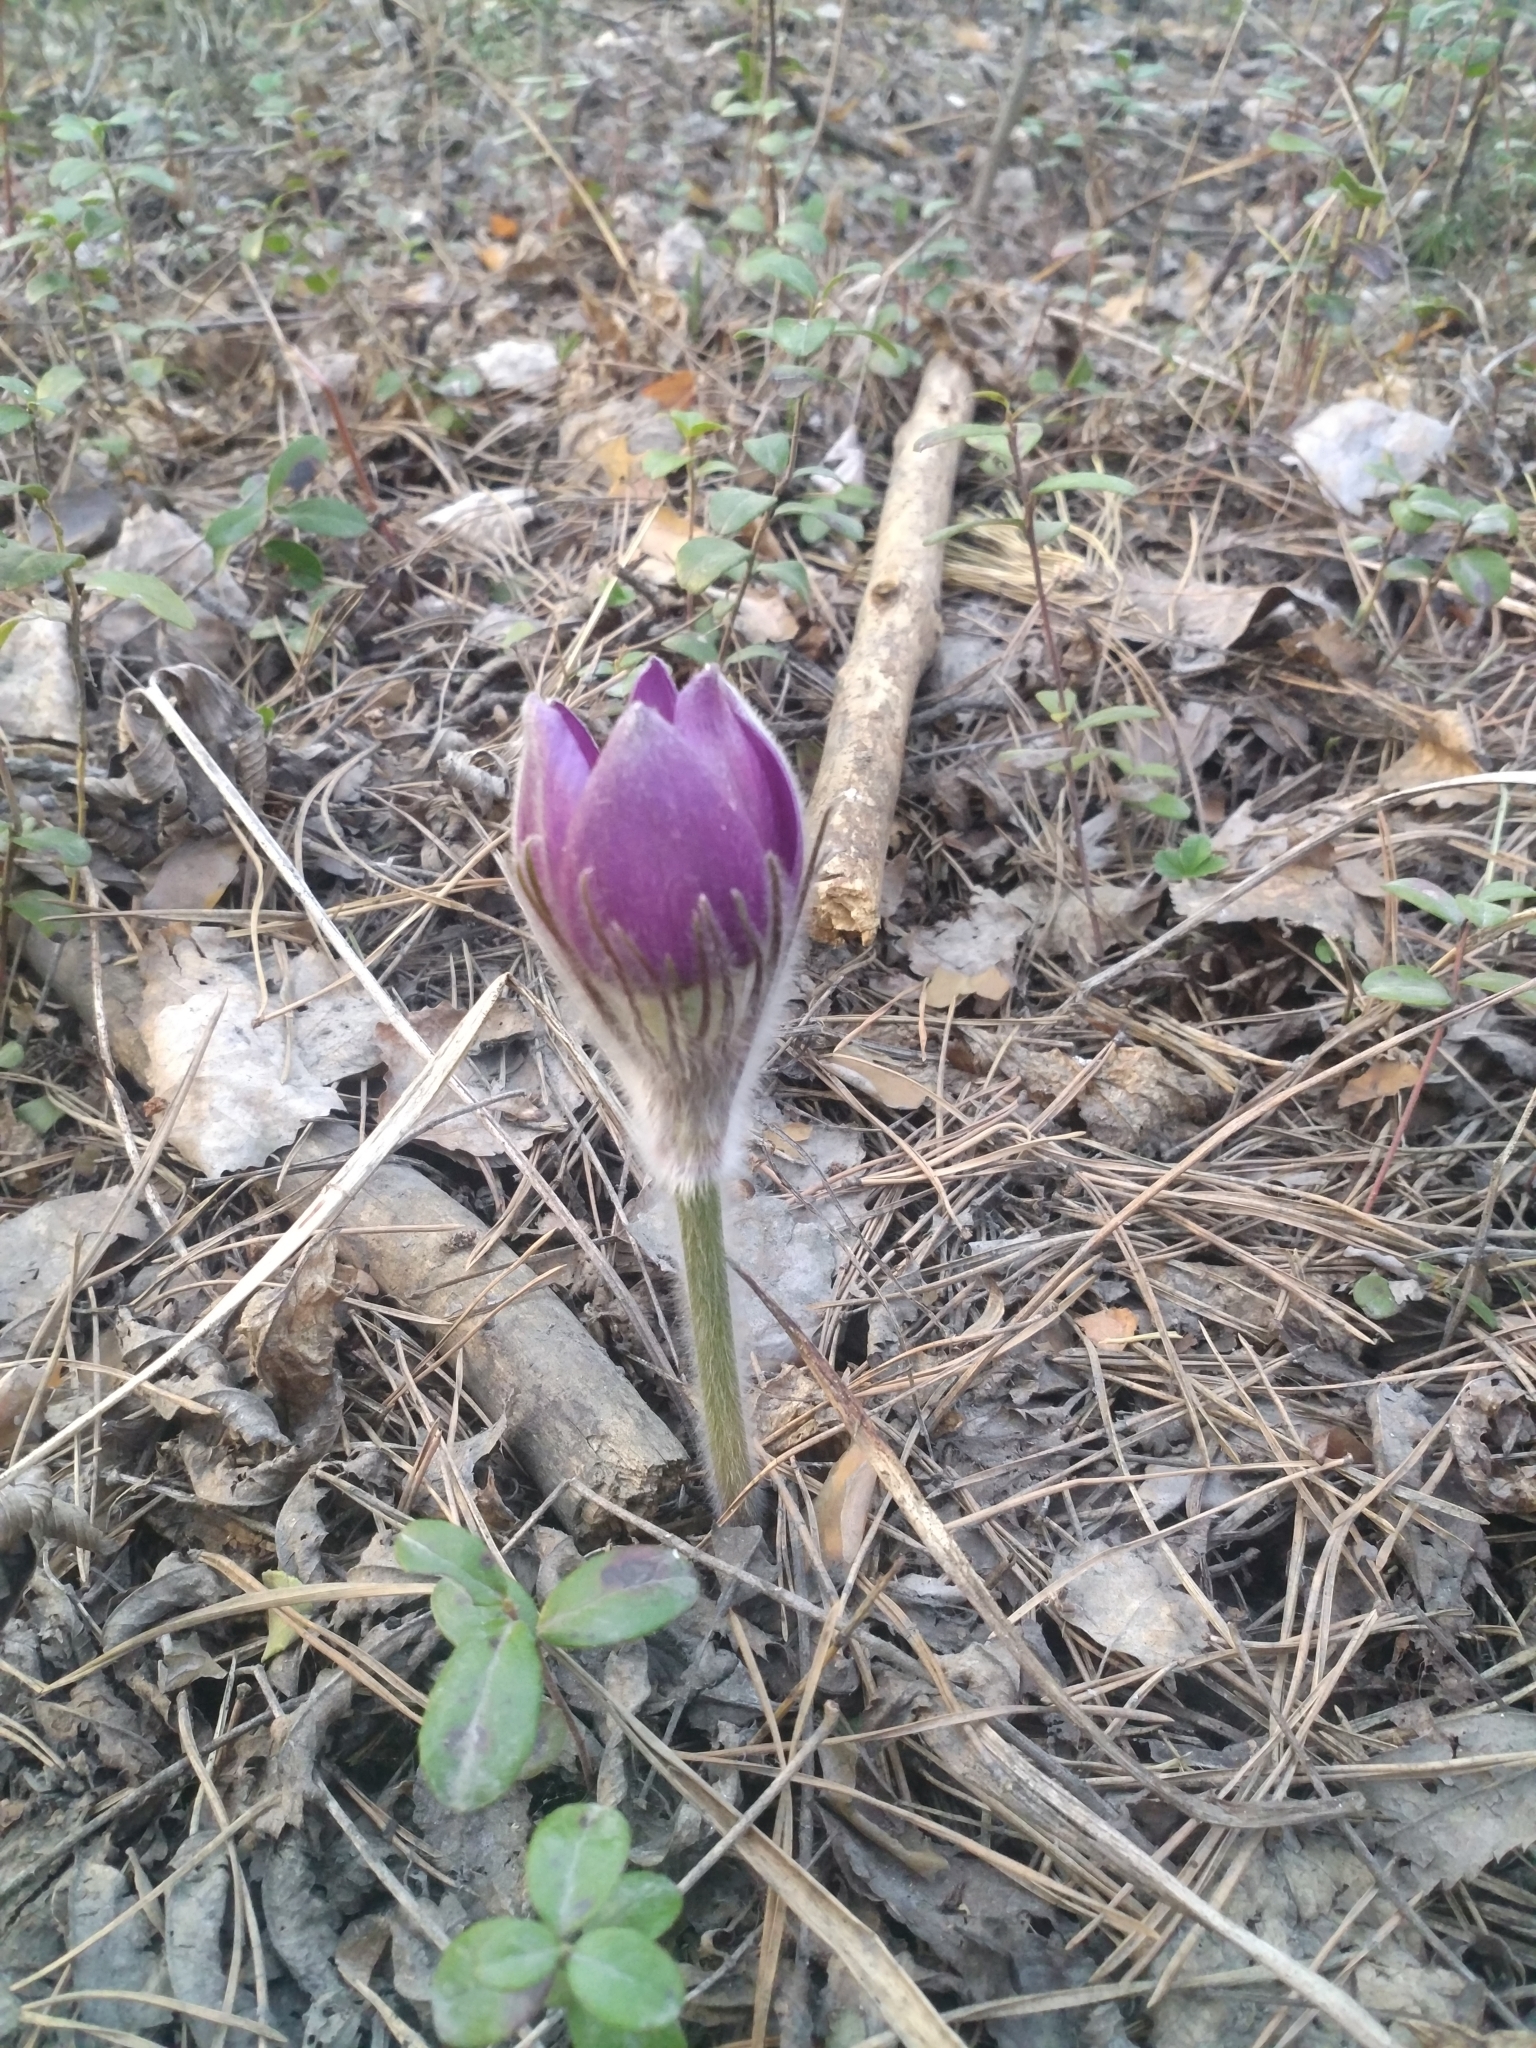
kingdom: Plantae
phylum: Tracheophyta
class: Magnoliopsida
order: Ranunculales
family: Ranunculaceae
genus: Pulsatilla
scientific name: Pulsatilla patens
